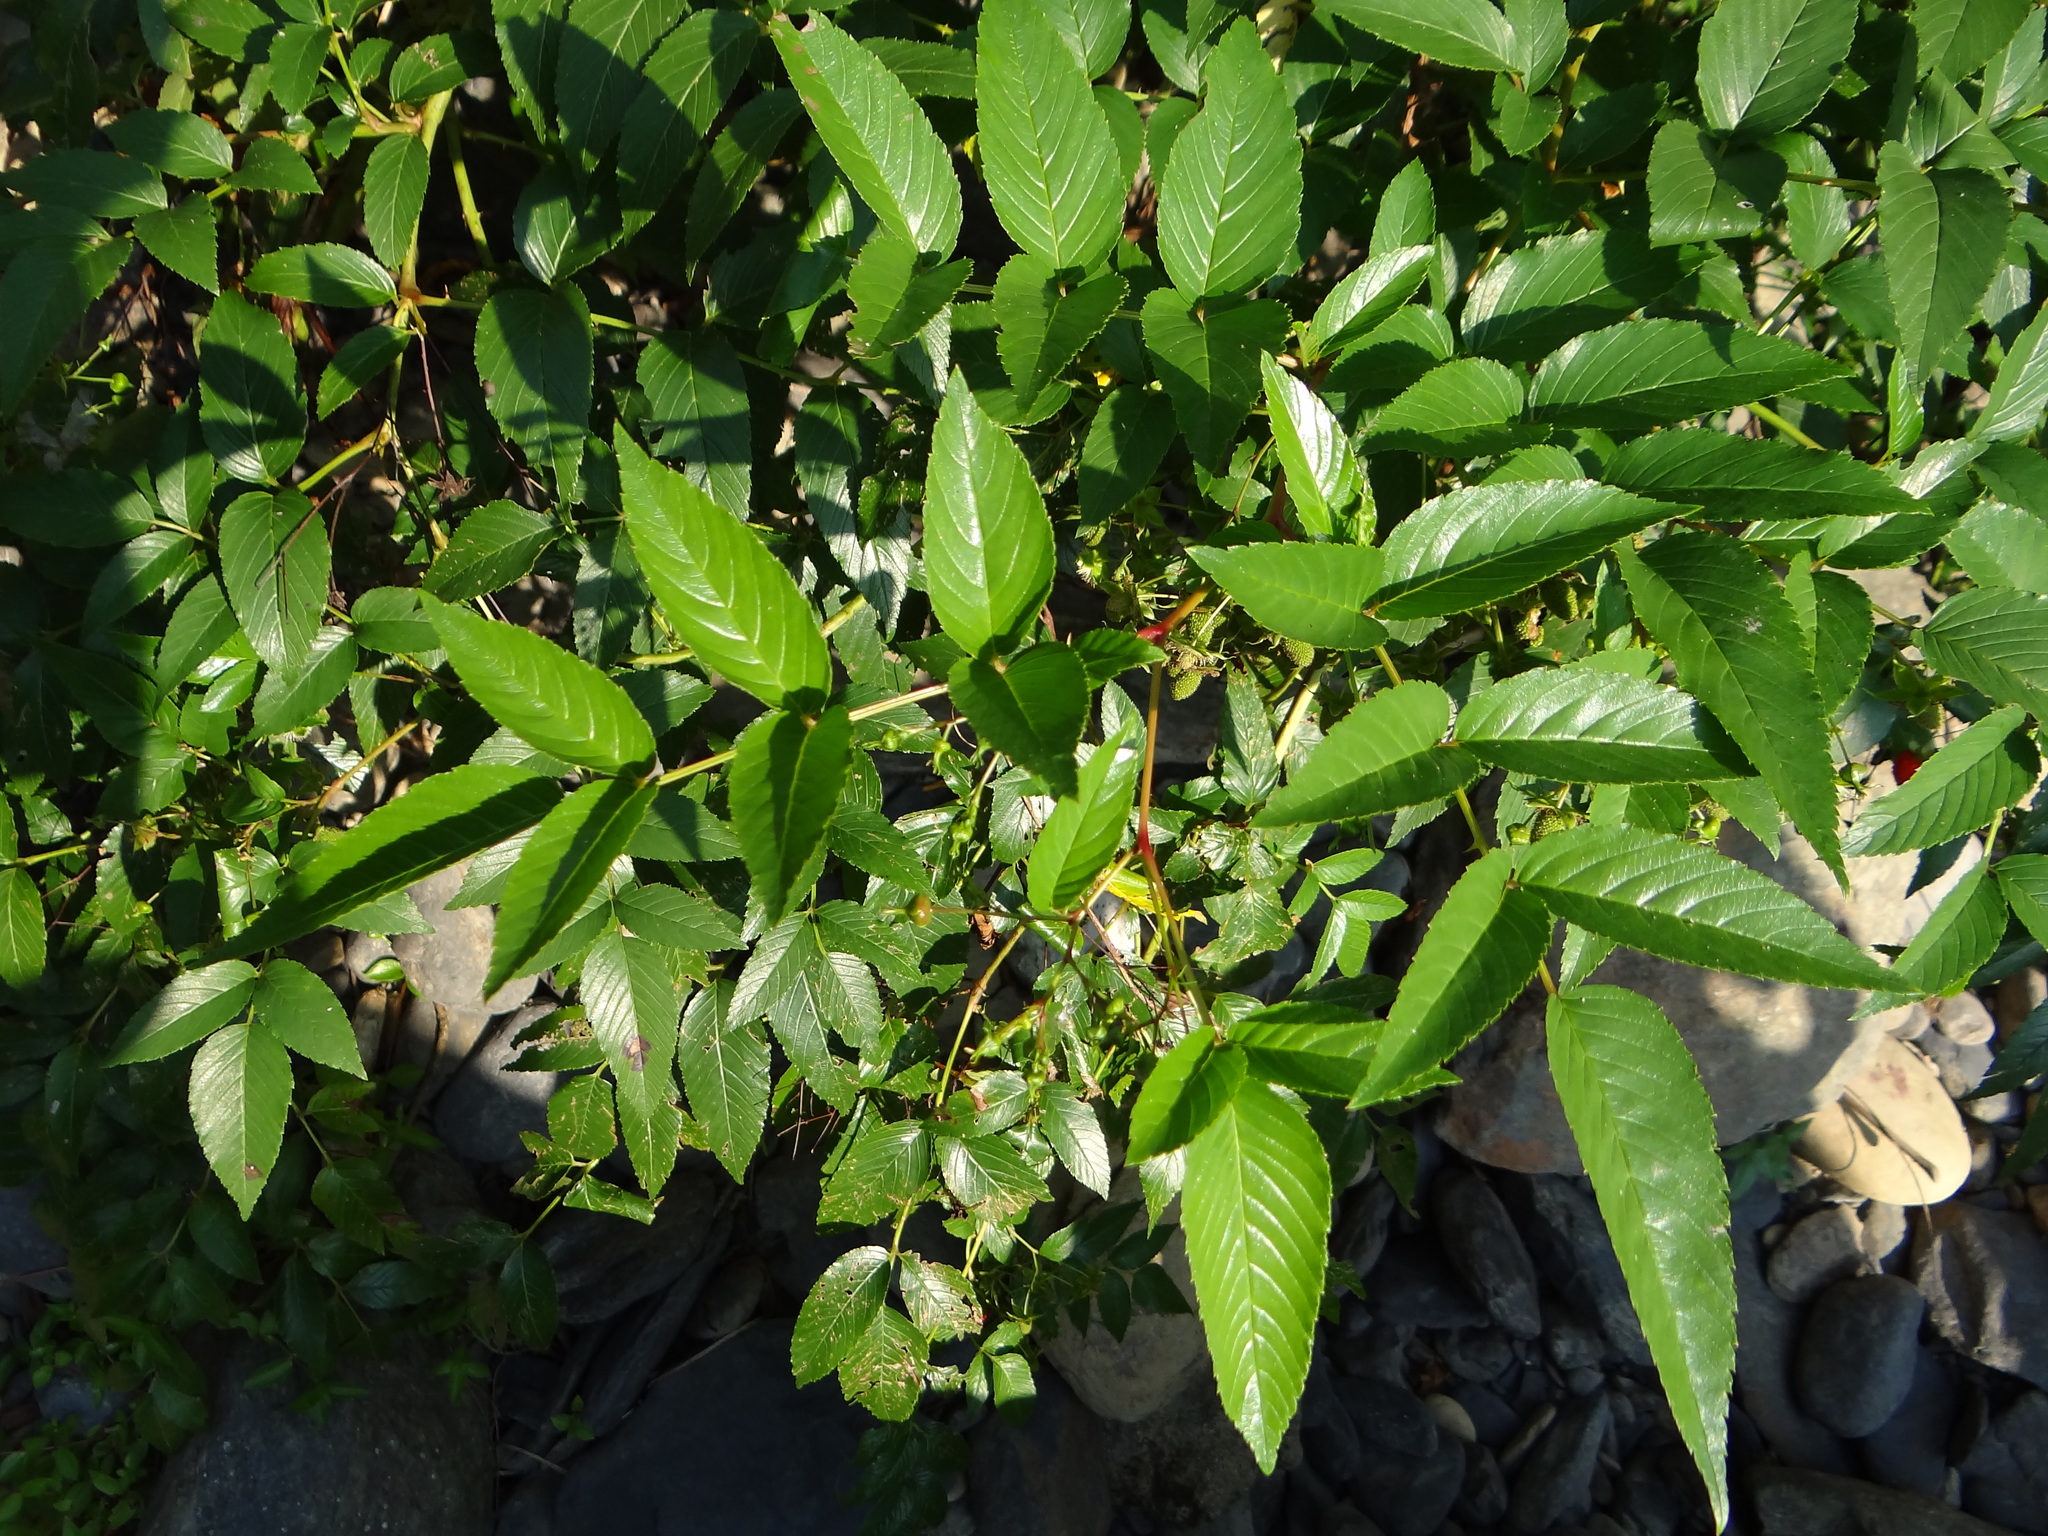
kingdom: Plantae
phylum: Tracheophyta
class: Magnoliopsida
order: Rosales
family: Rosaceae
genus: Rubus
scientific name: Rubus fraxinifolius
